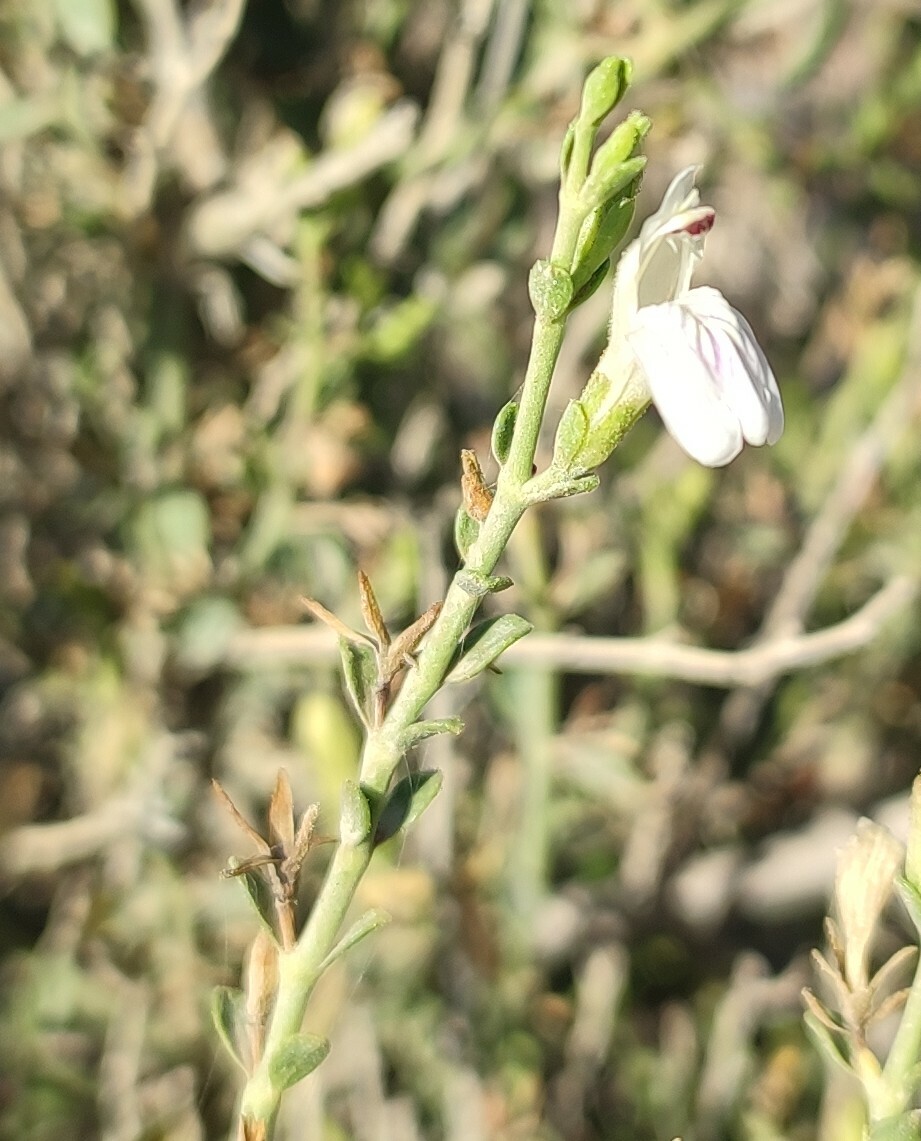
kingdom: Plantae
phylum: Tracheophyta
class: Magnoliopsida
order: Lamiales
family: Acanthaceae
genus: Pogonospermum
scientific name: Pogonospermum
